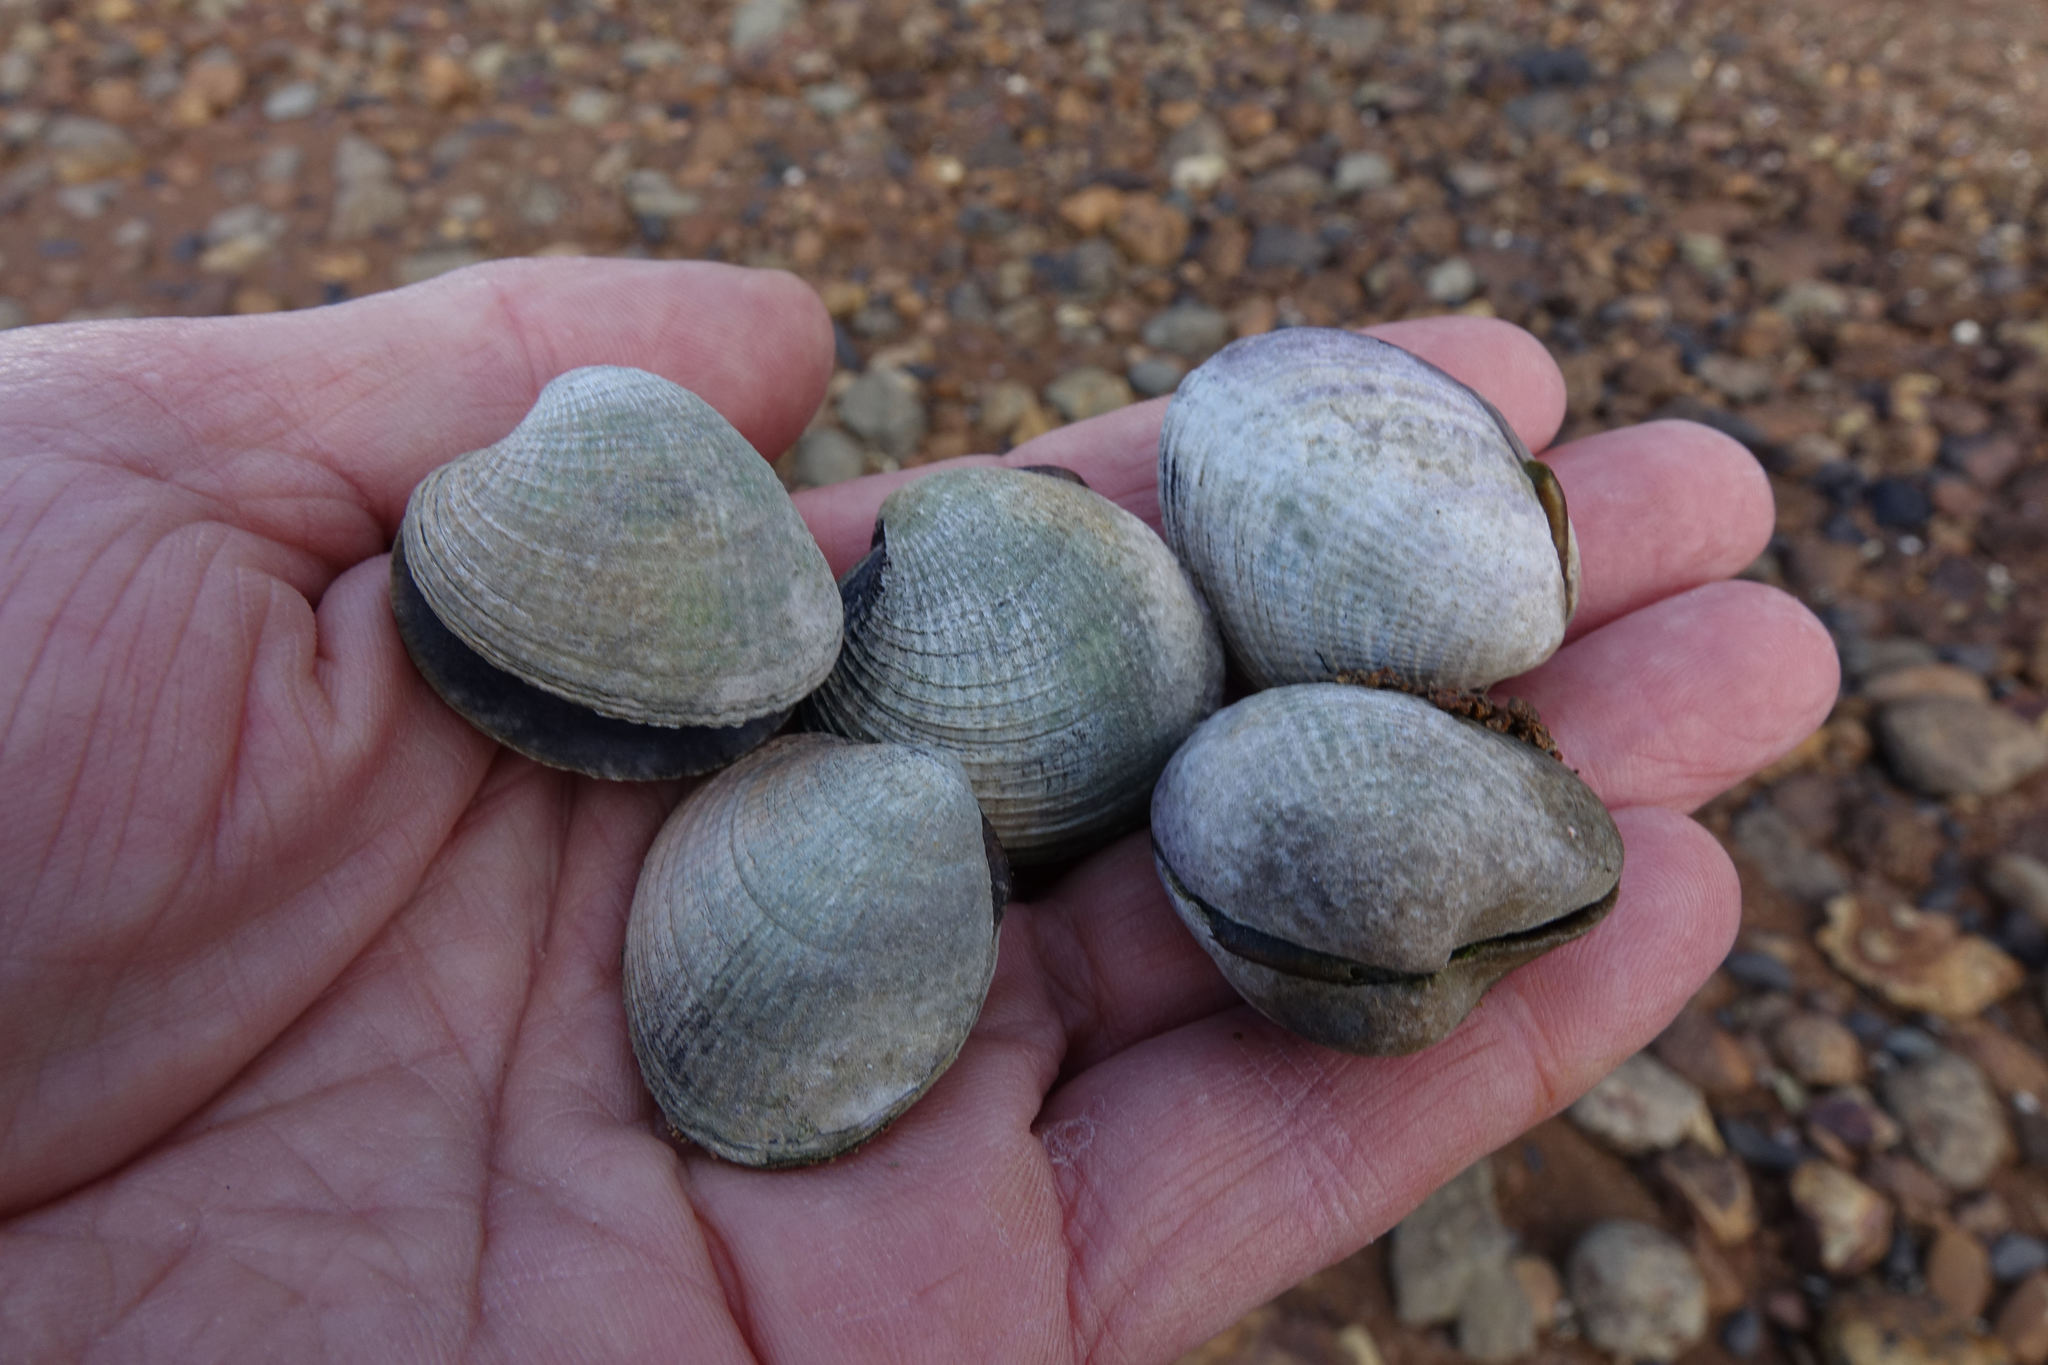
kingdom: Animalia
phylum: Mollusca
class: Bivalvia
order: Venerida
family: Veneridae
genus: Austrovenus
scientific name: Austrovenus stutchburyi
